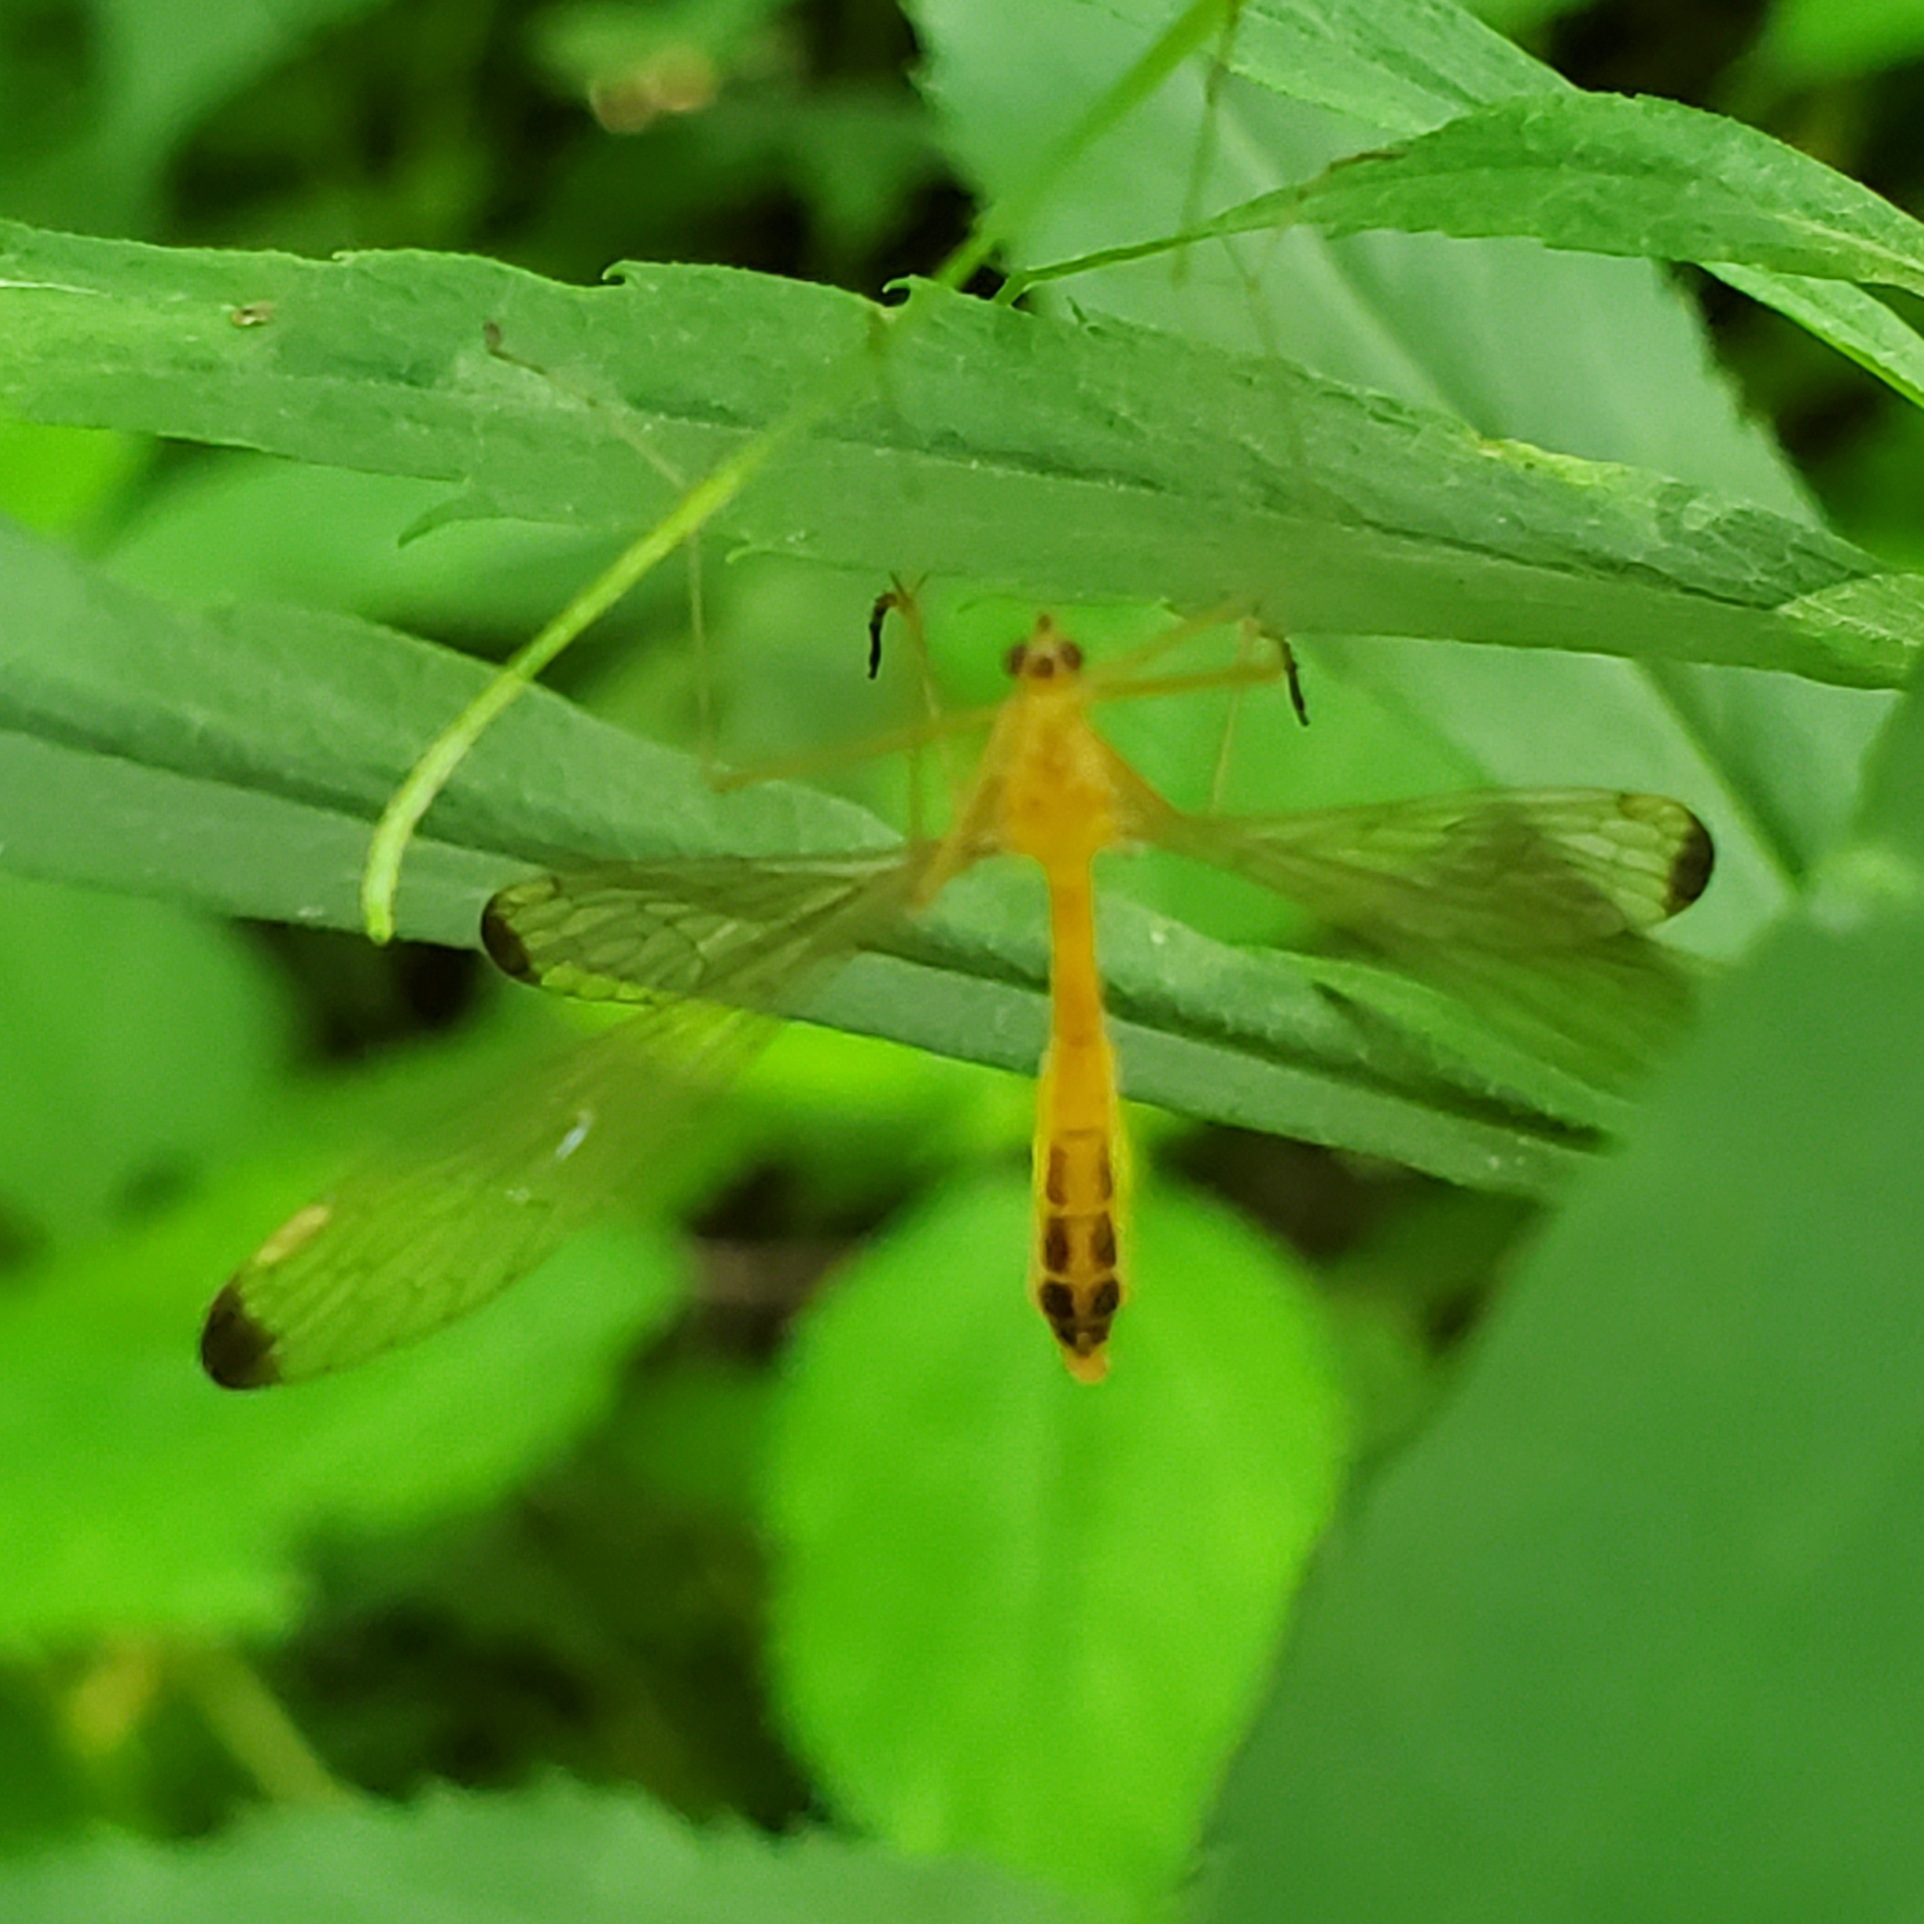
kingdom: Animalia
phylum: Arthropoda
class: Insecta
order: Mecoptera
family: Bittacidae
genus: Hylobittacus
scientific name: Hylobittacus apicalis
